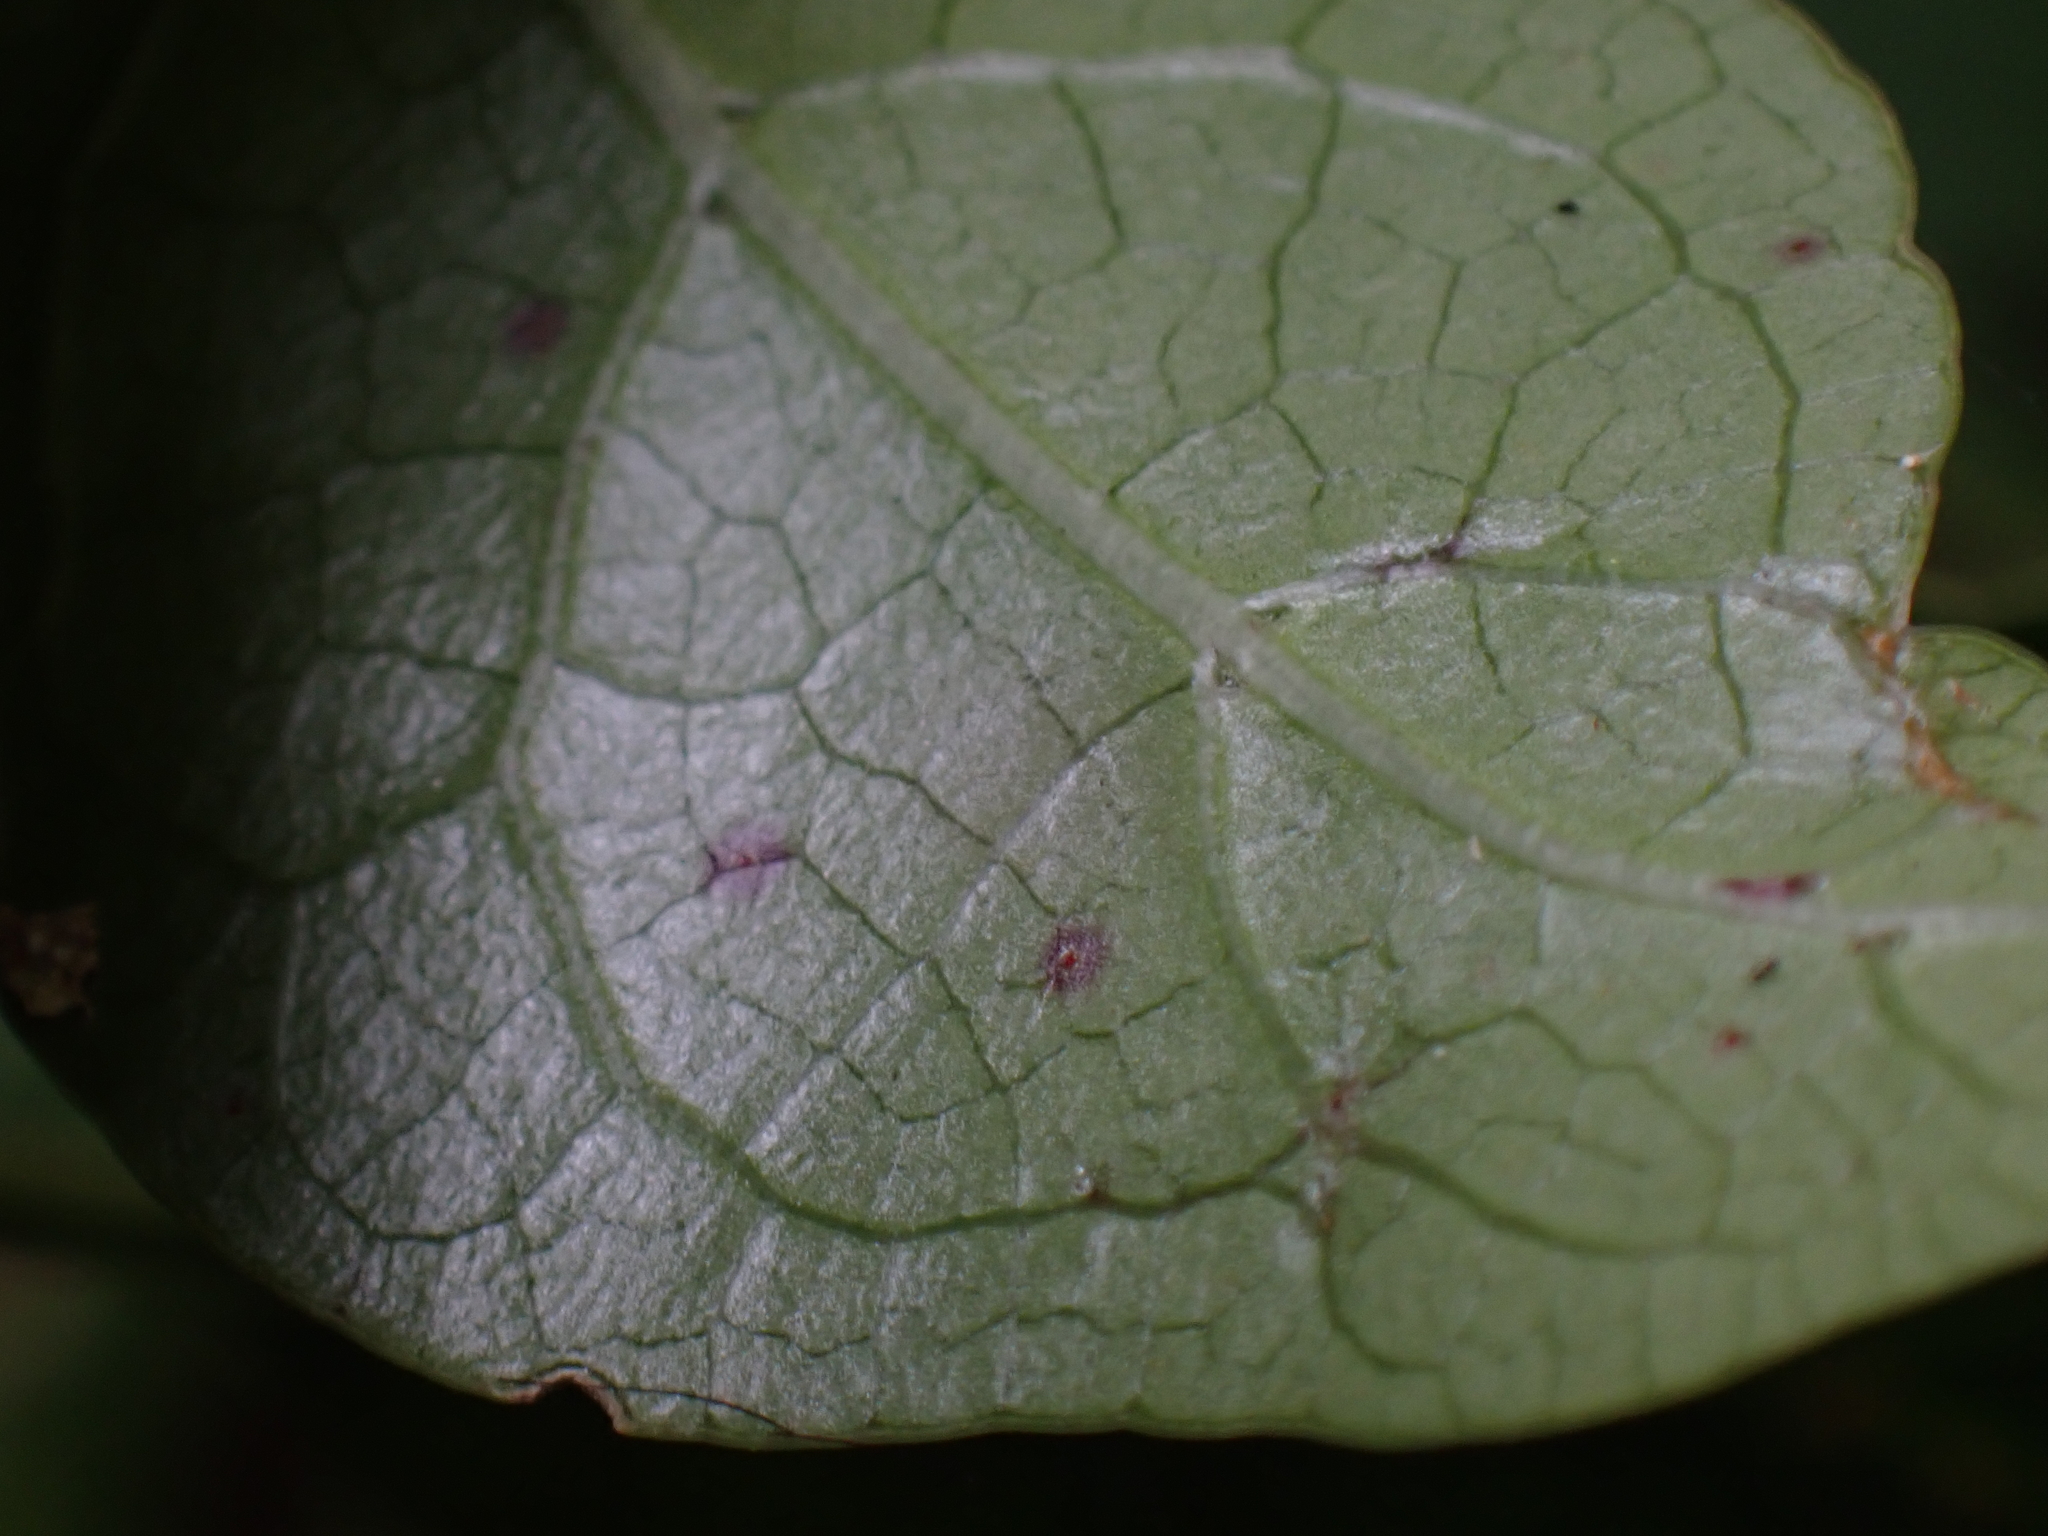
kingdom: Plantae
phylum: Tracheophyta
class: Magnoliopsida
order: Gentianales
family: Rubiaceae
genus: Coprosma
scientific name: Coprosma autumnalis
